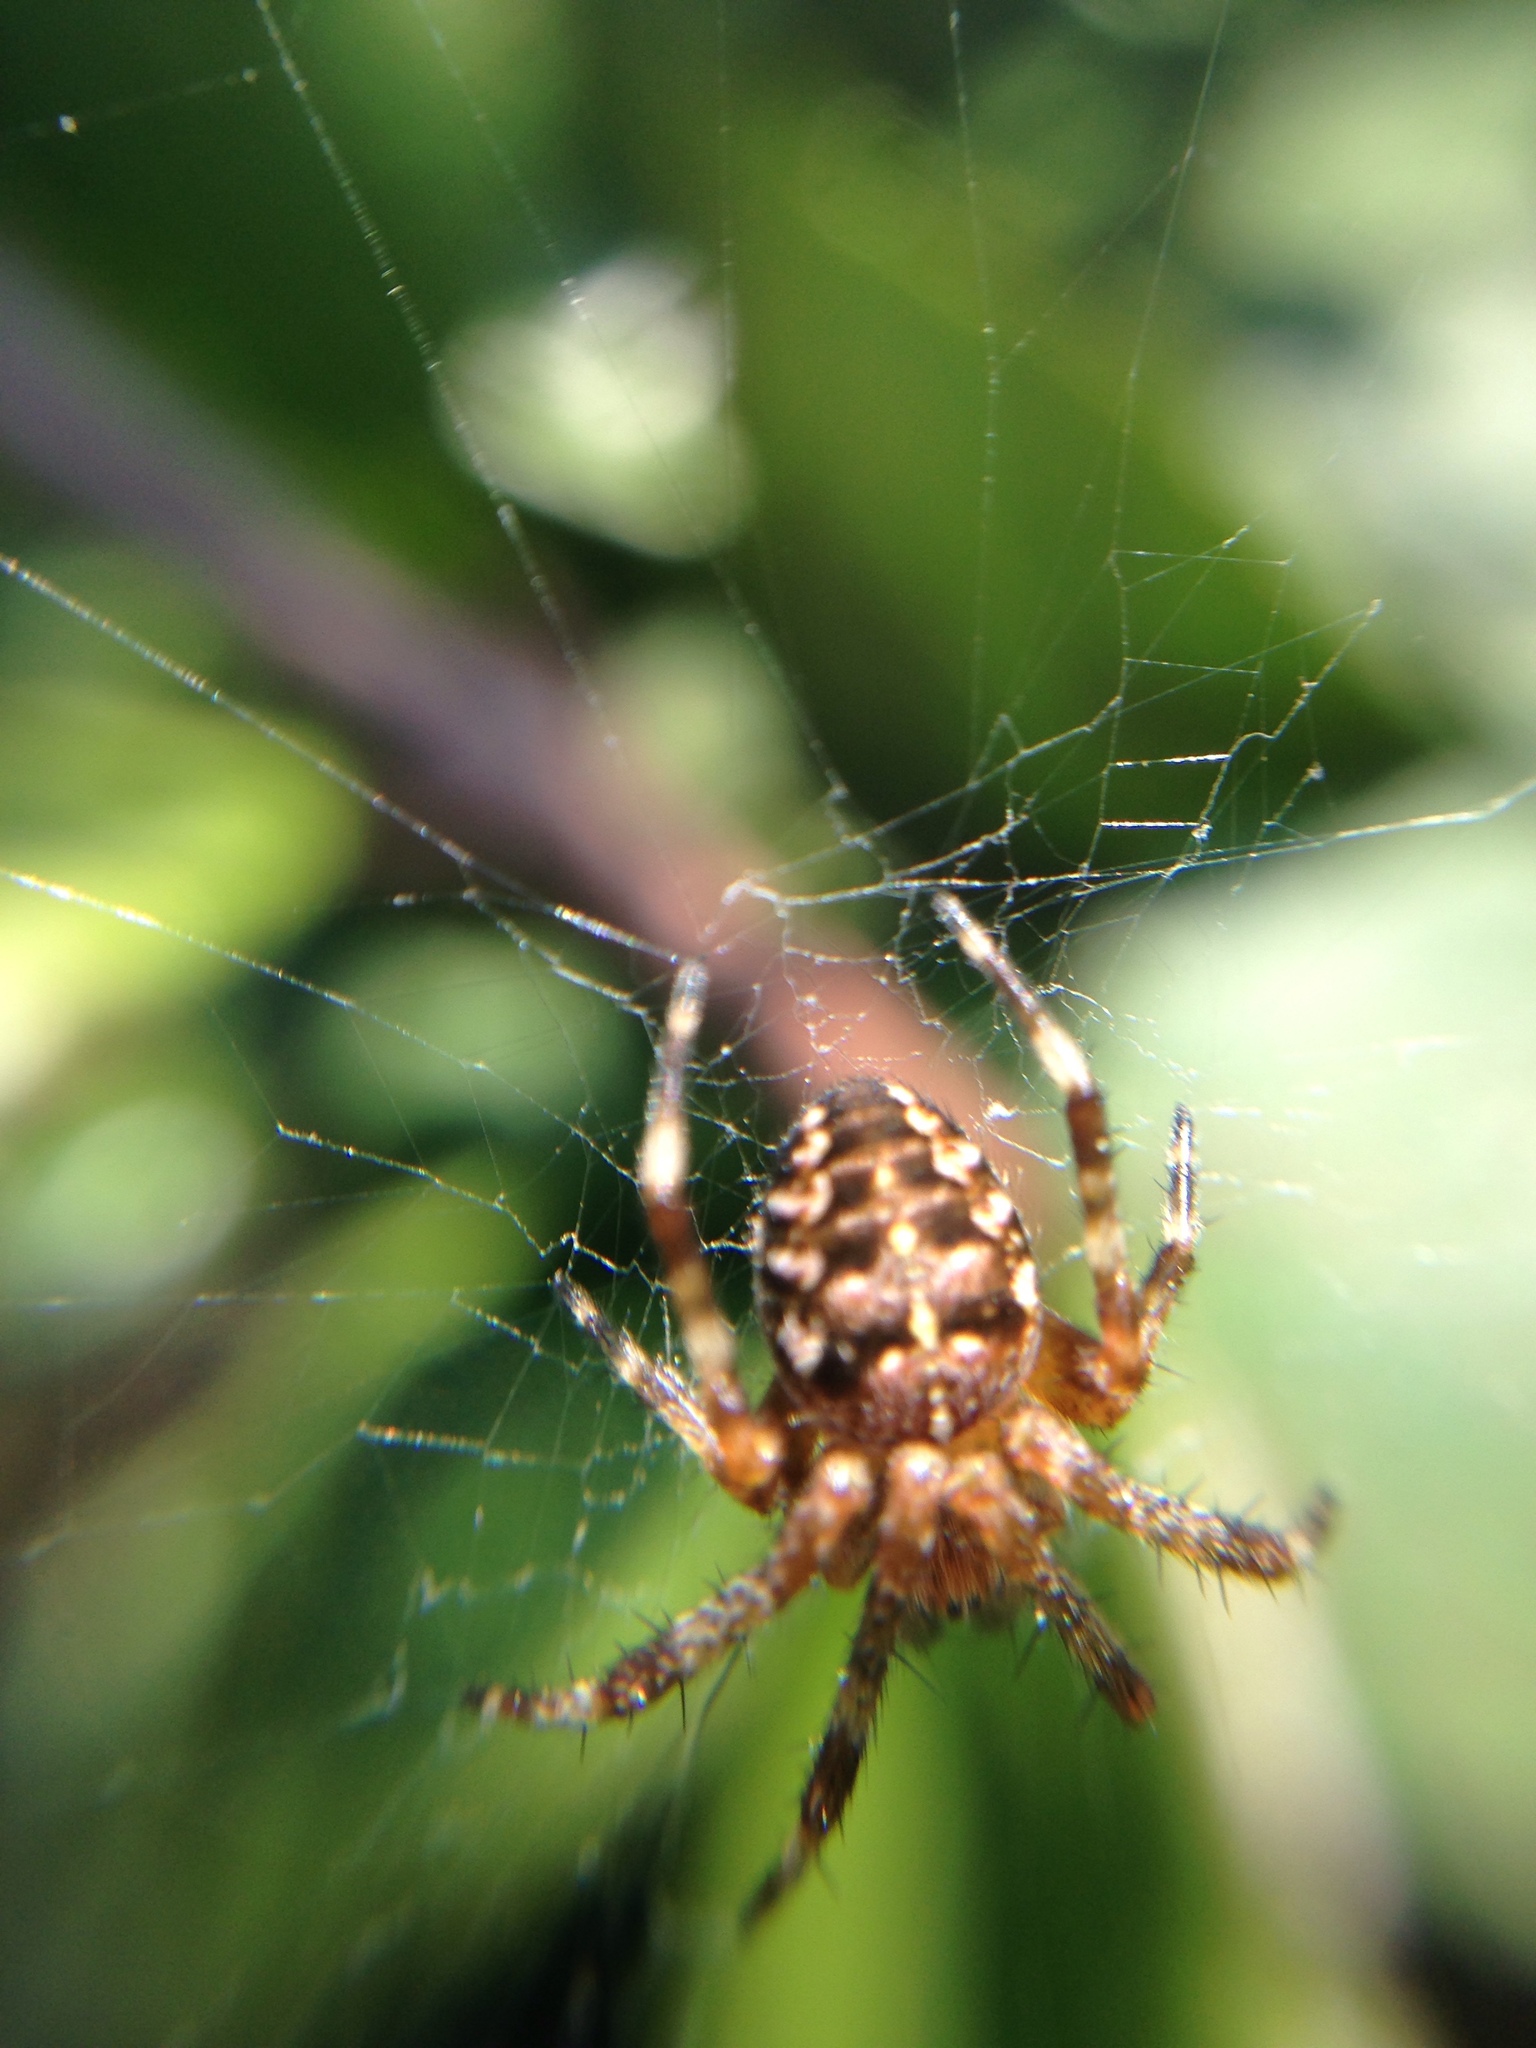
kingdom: Animalia
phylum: Arthropoda
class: Arachnida
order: Araneae
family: Araneidae
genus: Araneus
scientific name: Araneus diadematus
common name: Cross orbweaver
